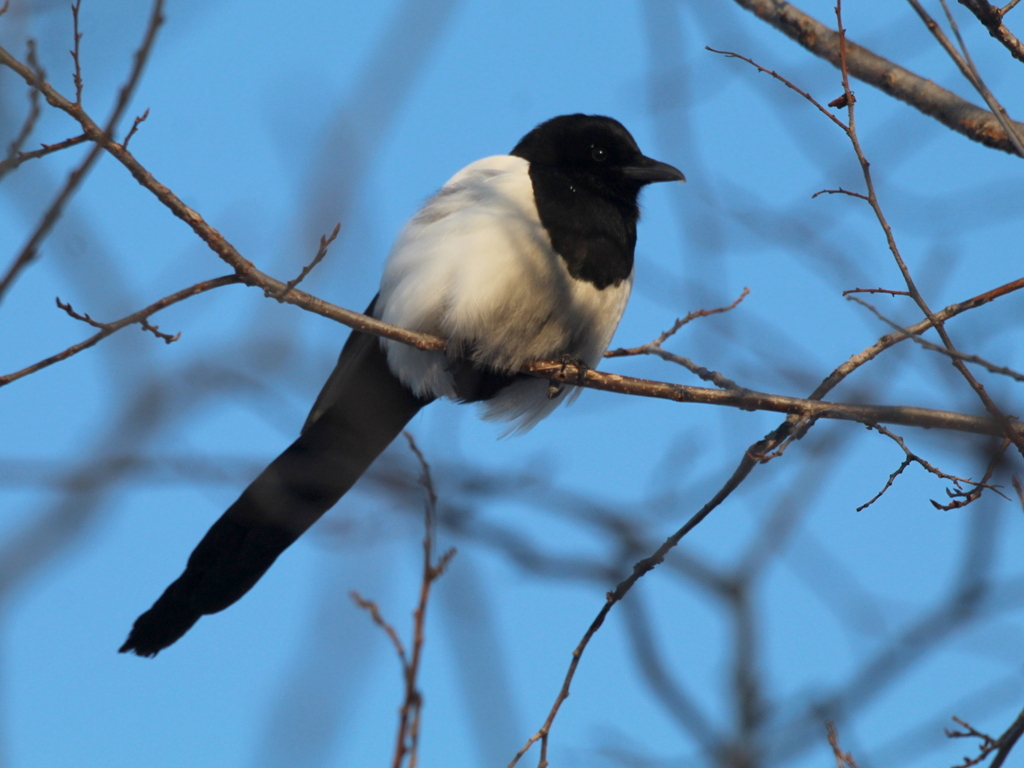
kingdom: Animalia
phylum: Chordata
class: Aves
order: Passeriformes
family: Corvidae
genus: Pica
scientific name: Pica pica
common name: Eurasian magpie
